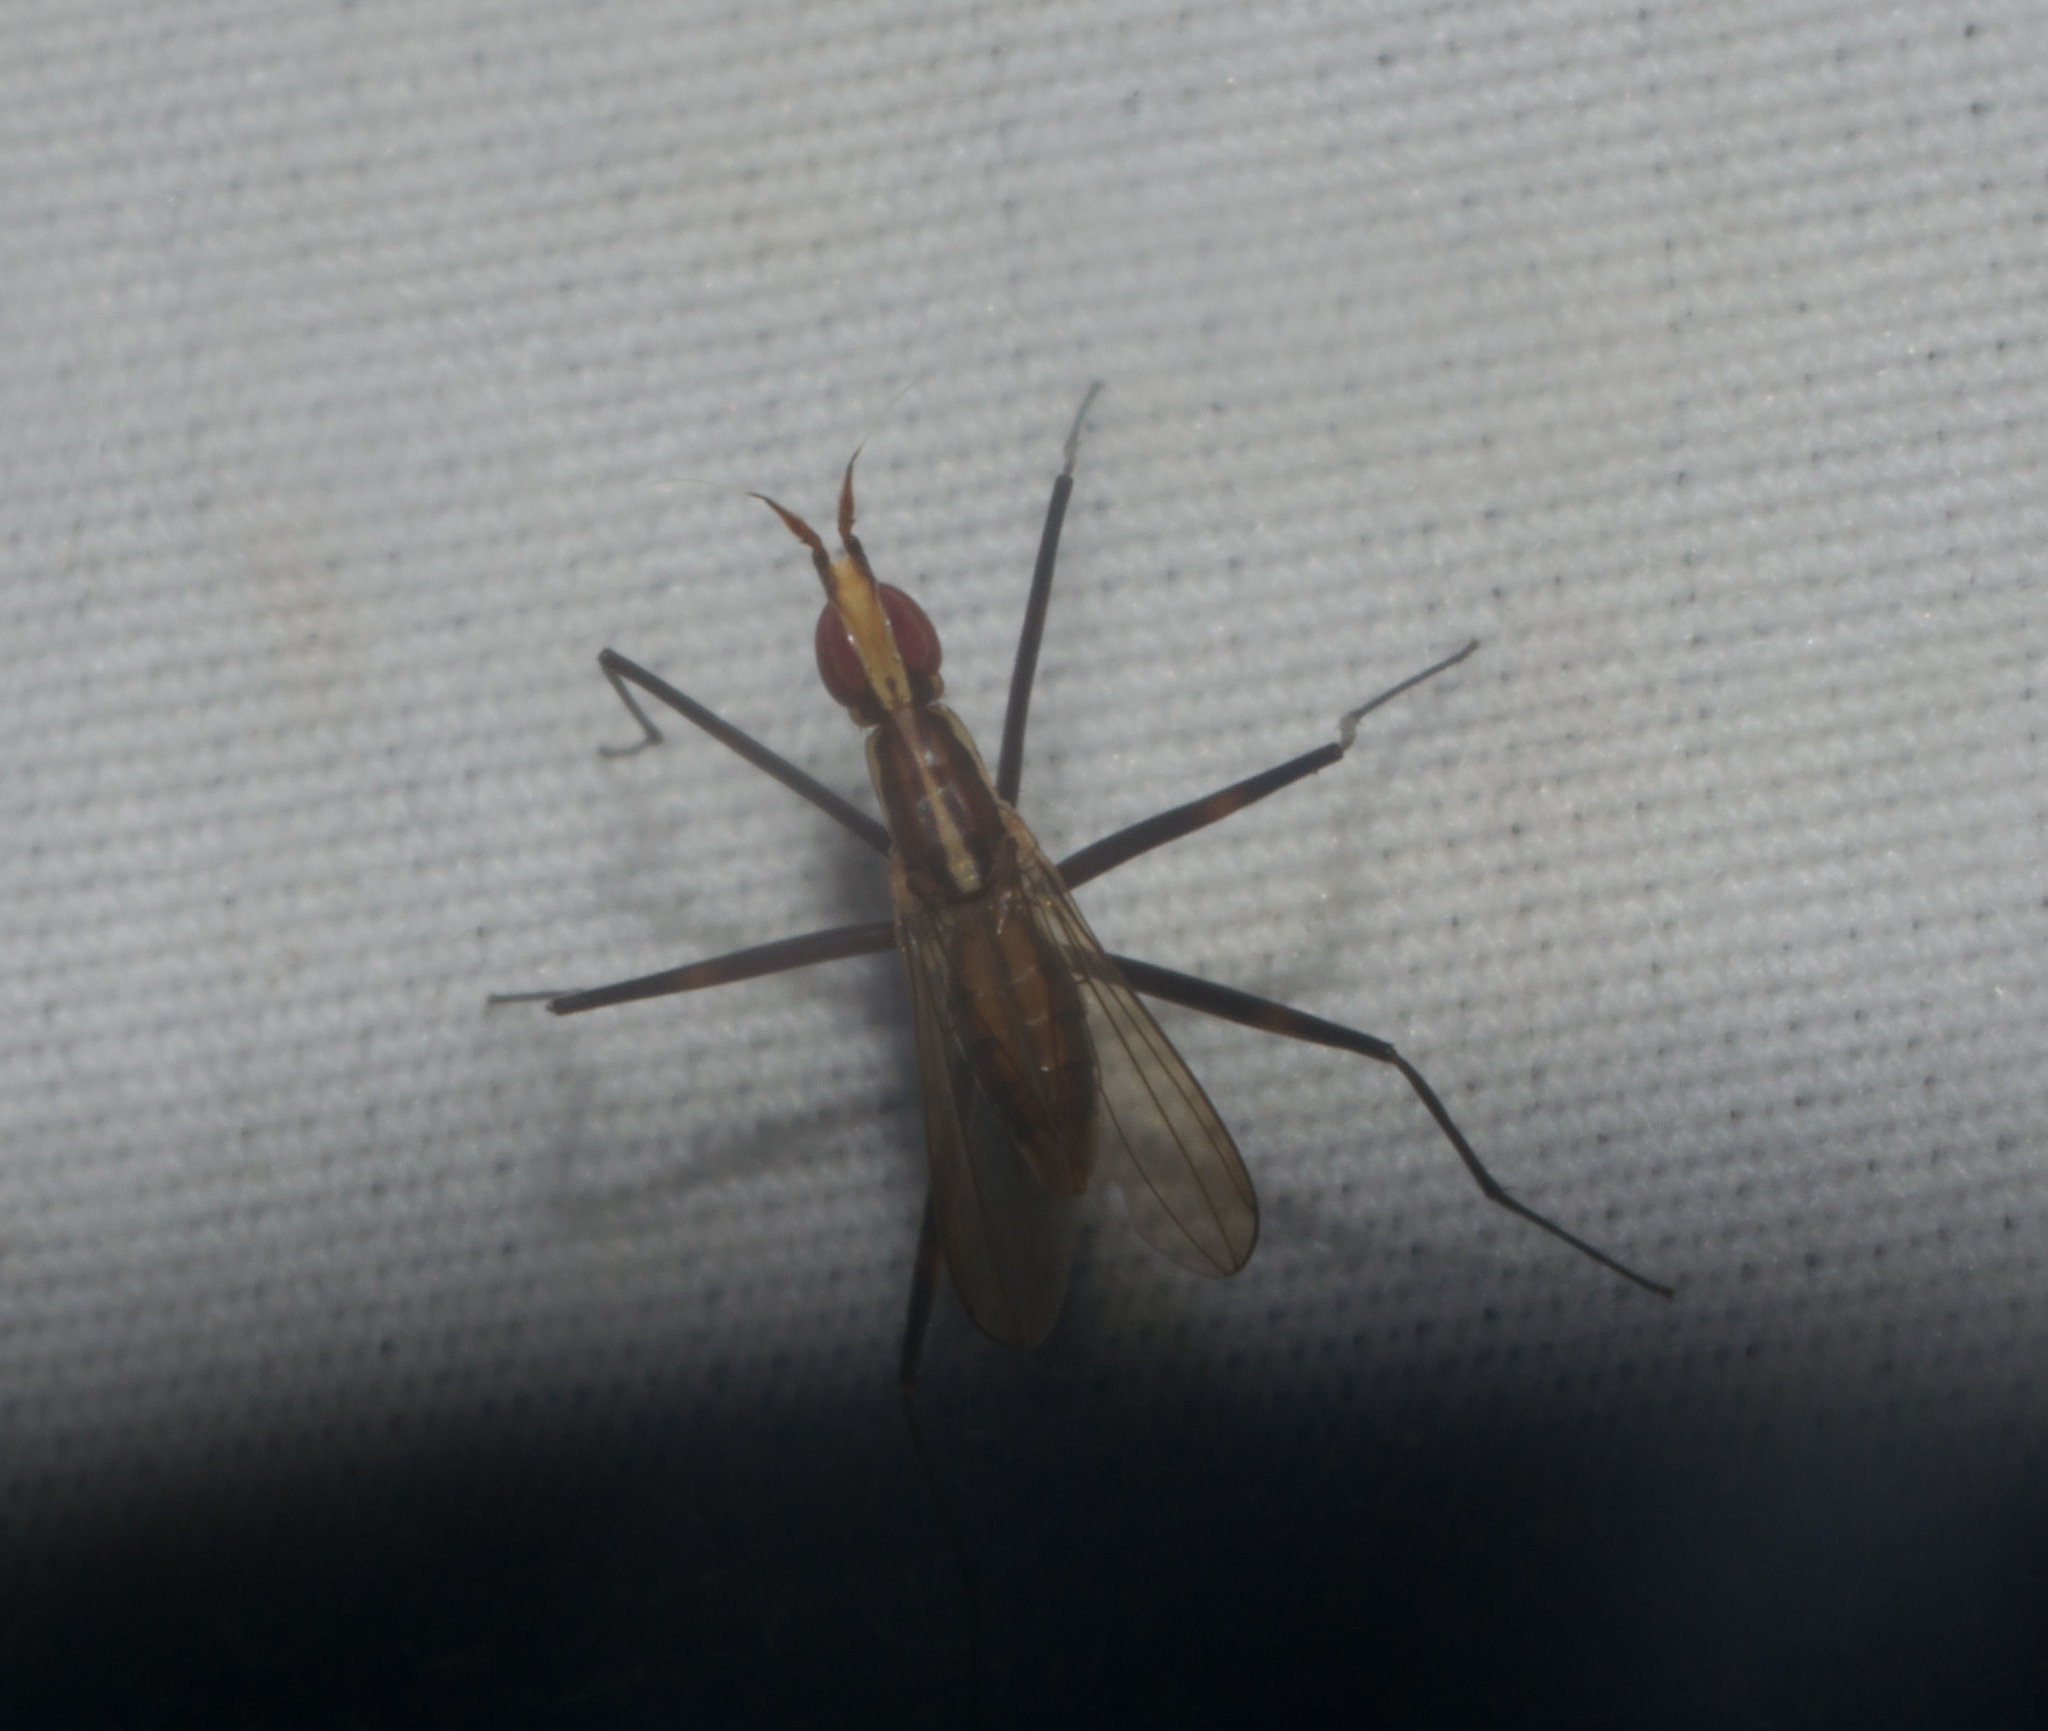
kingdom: Animalia
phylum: Arthropoda
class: Insecta
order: Diptera
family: Neriidae
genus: Telostylinus
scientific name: Telostylinus lineolatus
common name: Banana stalk fly
